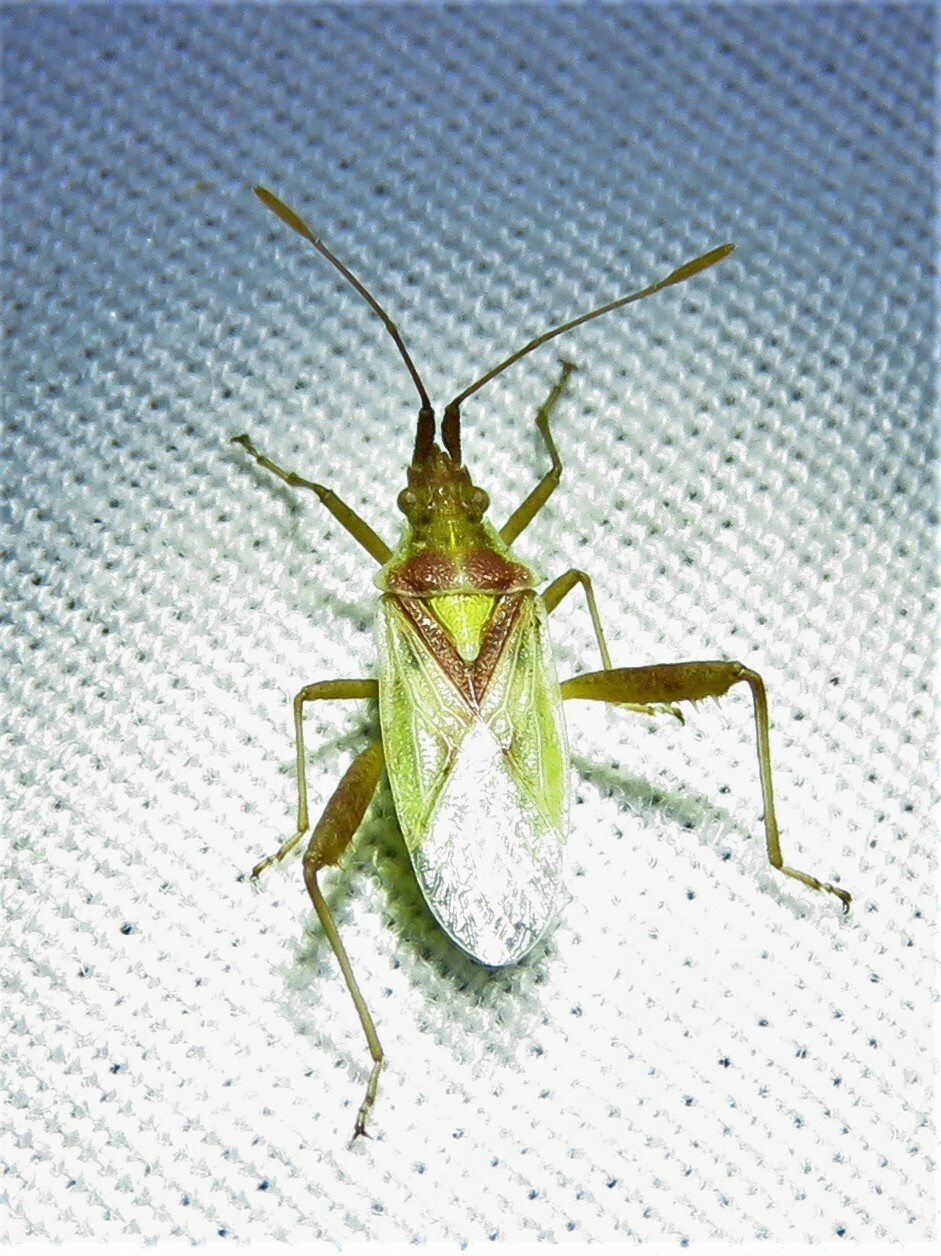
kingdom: Animalia
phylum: Arthropoda
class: Insecta
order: Hemiptera
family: Rhopalidae
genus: Harmostes
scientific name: Harmostes reflexulus
